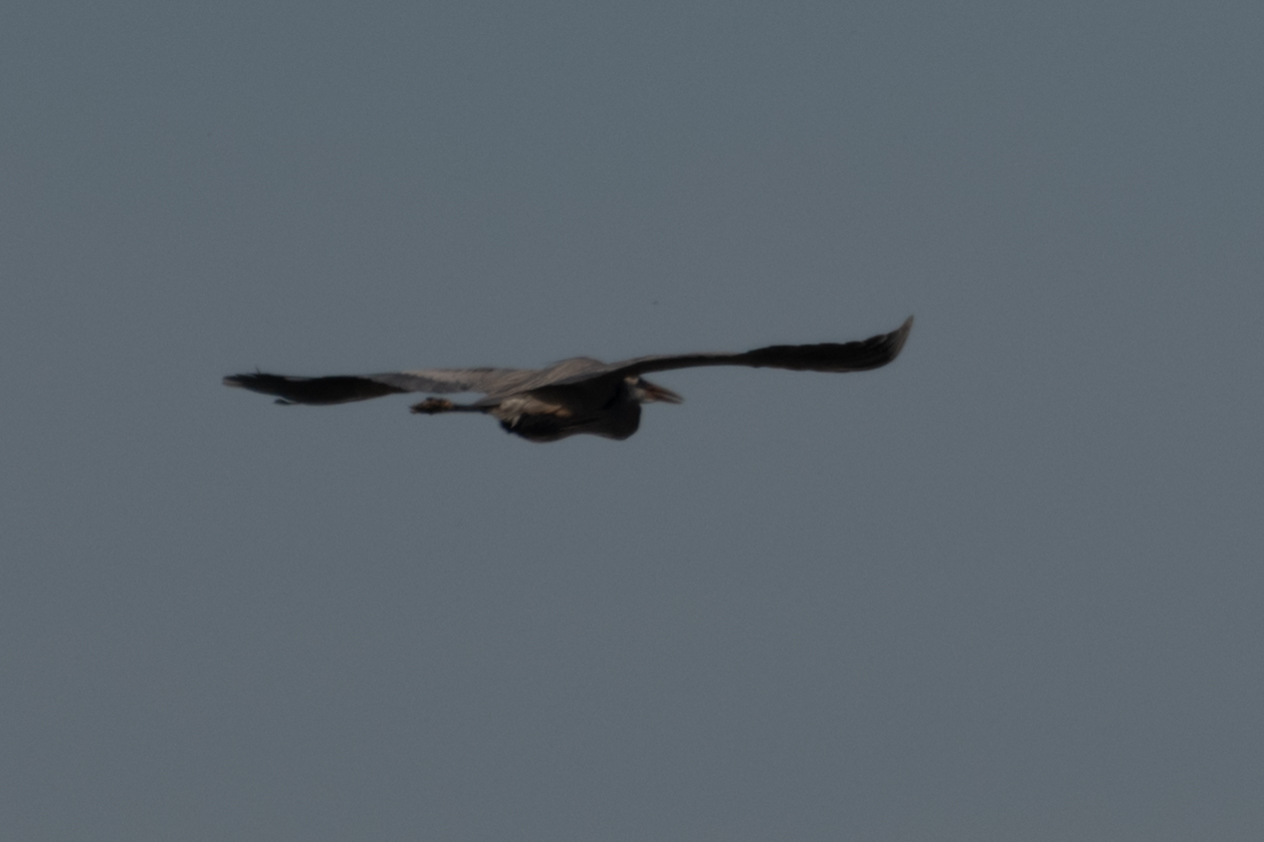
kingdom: Animalia
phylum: Chordata
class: Aves
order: Pelecaniformes
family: Ardeidae
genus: Ardea
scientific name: Ardea herodias
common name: Great blue heron
